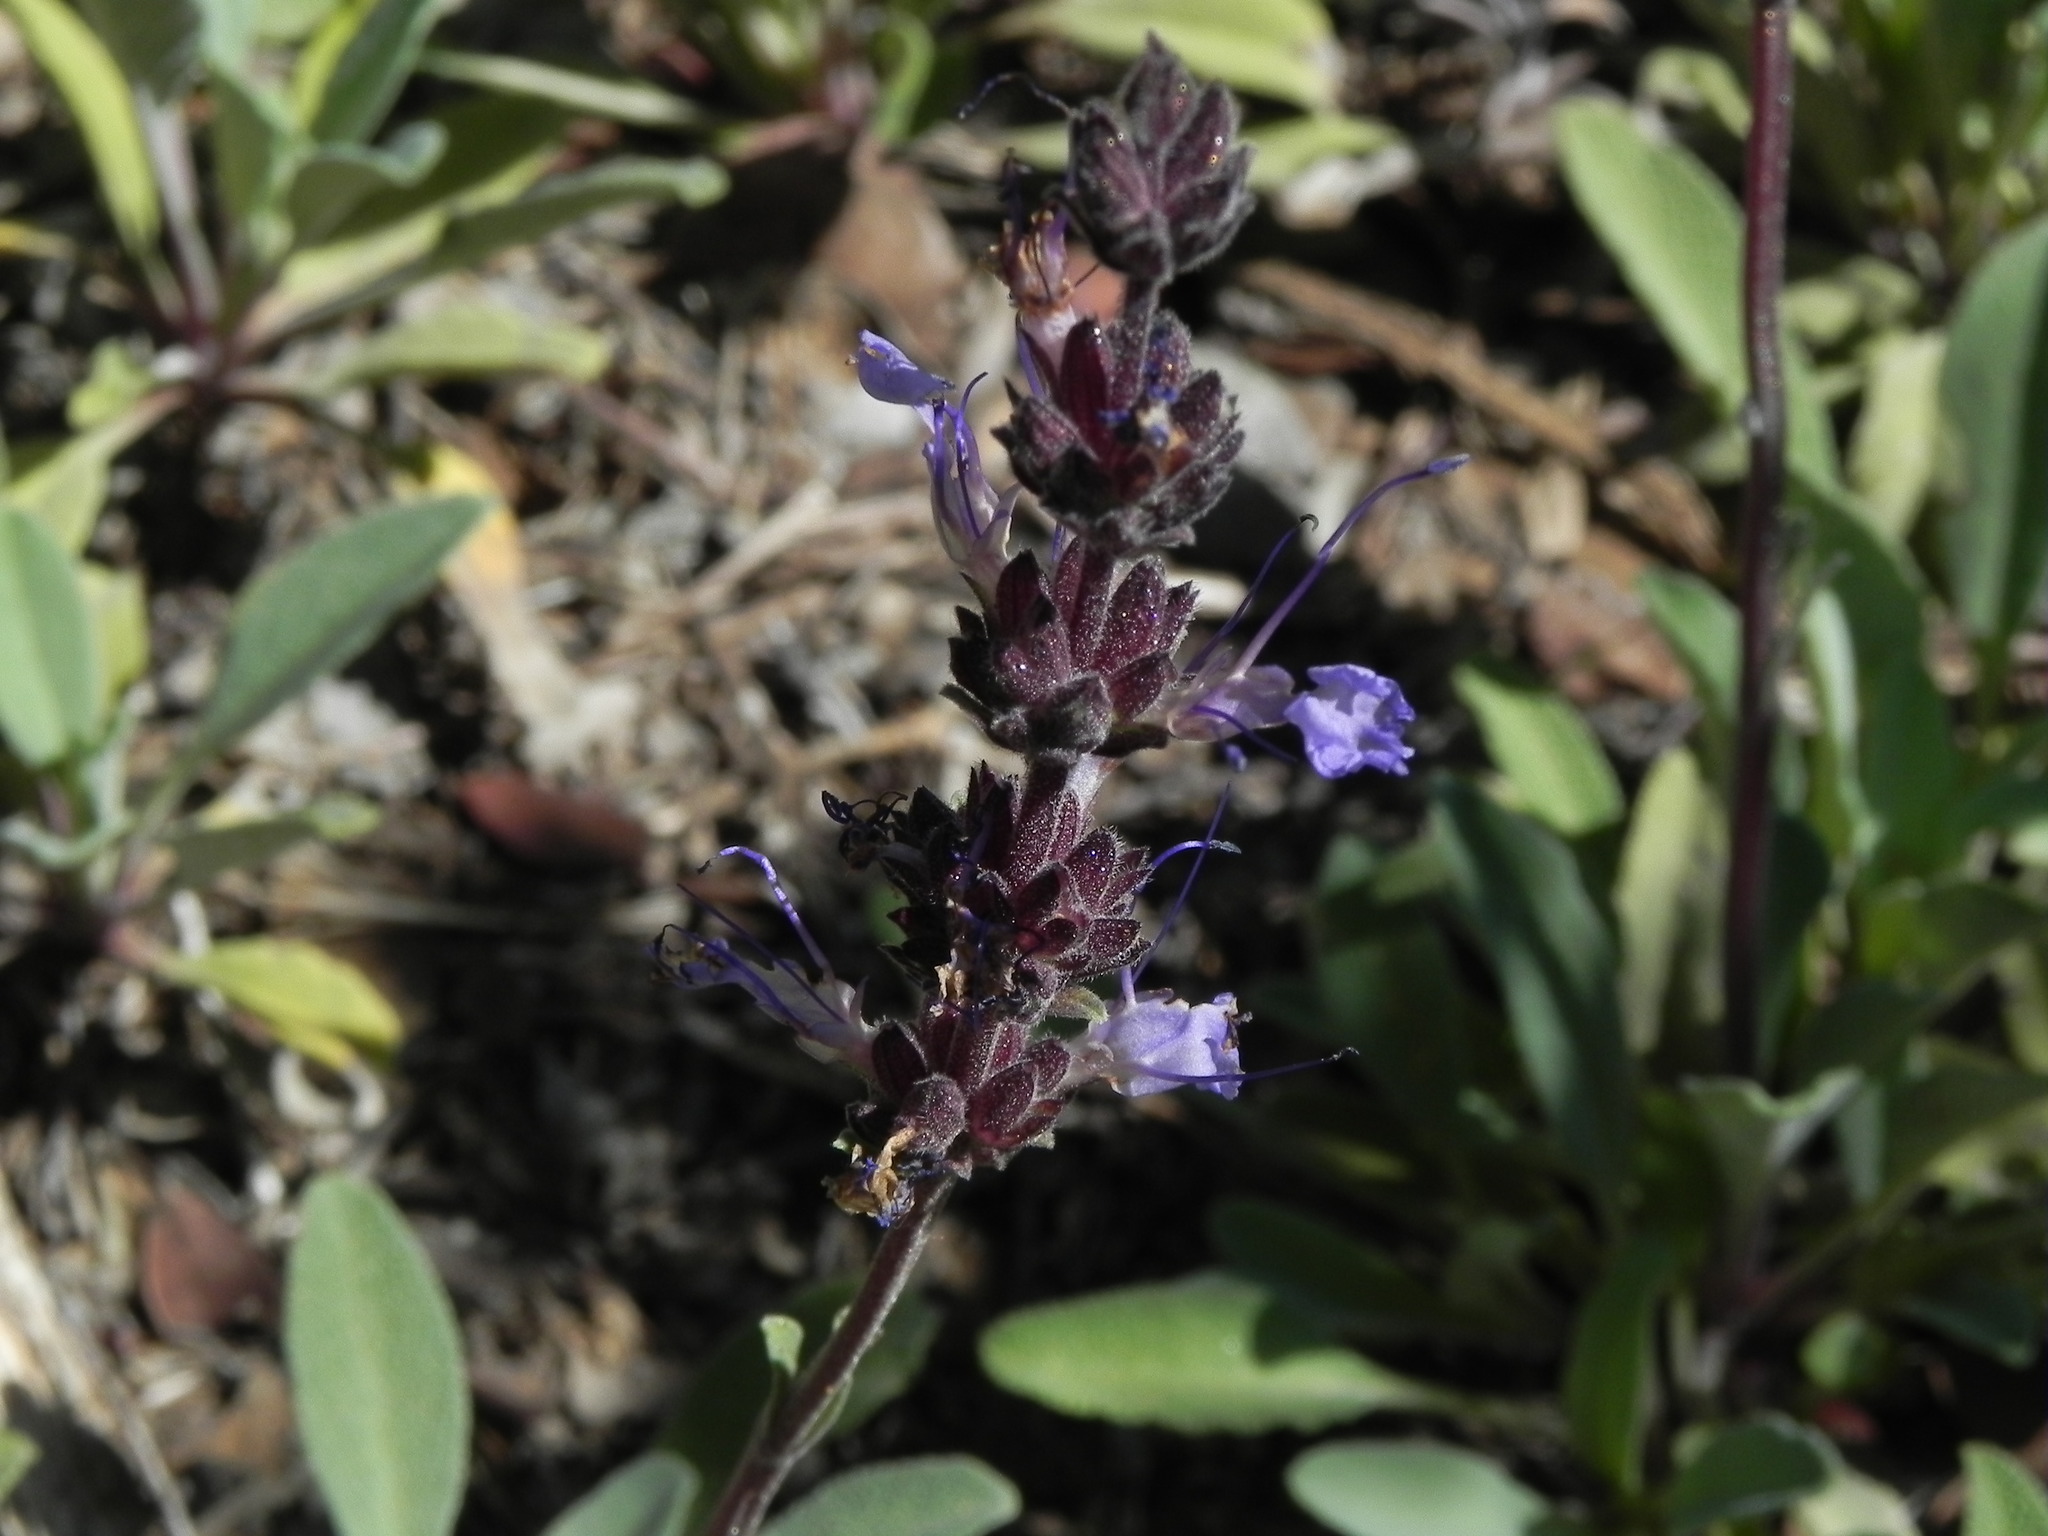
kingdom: Plantae
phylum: Tracheophyta
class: Magnoliopsida
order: Lamiales
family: Lamiaceae
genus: Salvia
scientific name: Salvia sonomensis
